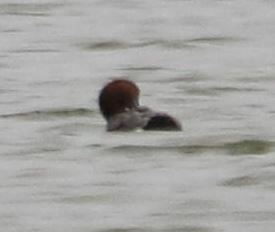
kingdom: Animalia
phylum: Chordata
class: Aves
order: Anseriformes
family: Anatidae
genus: Aythya
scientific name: Aythya ferina
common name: Common pochard
